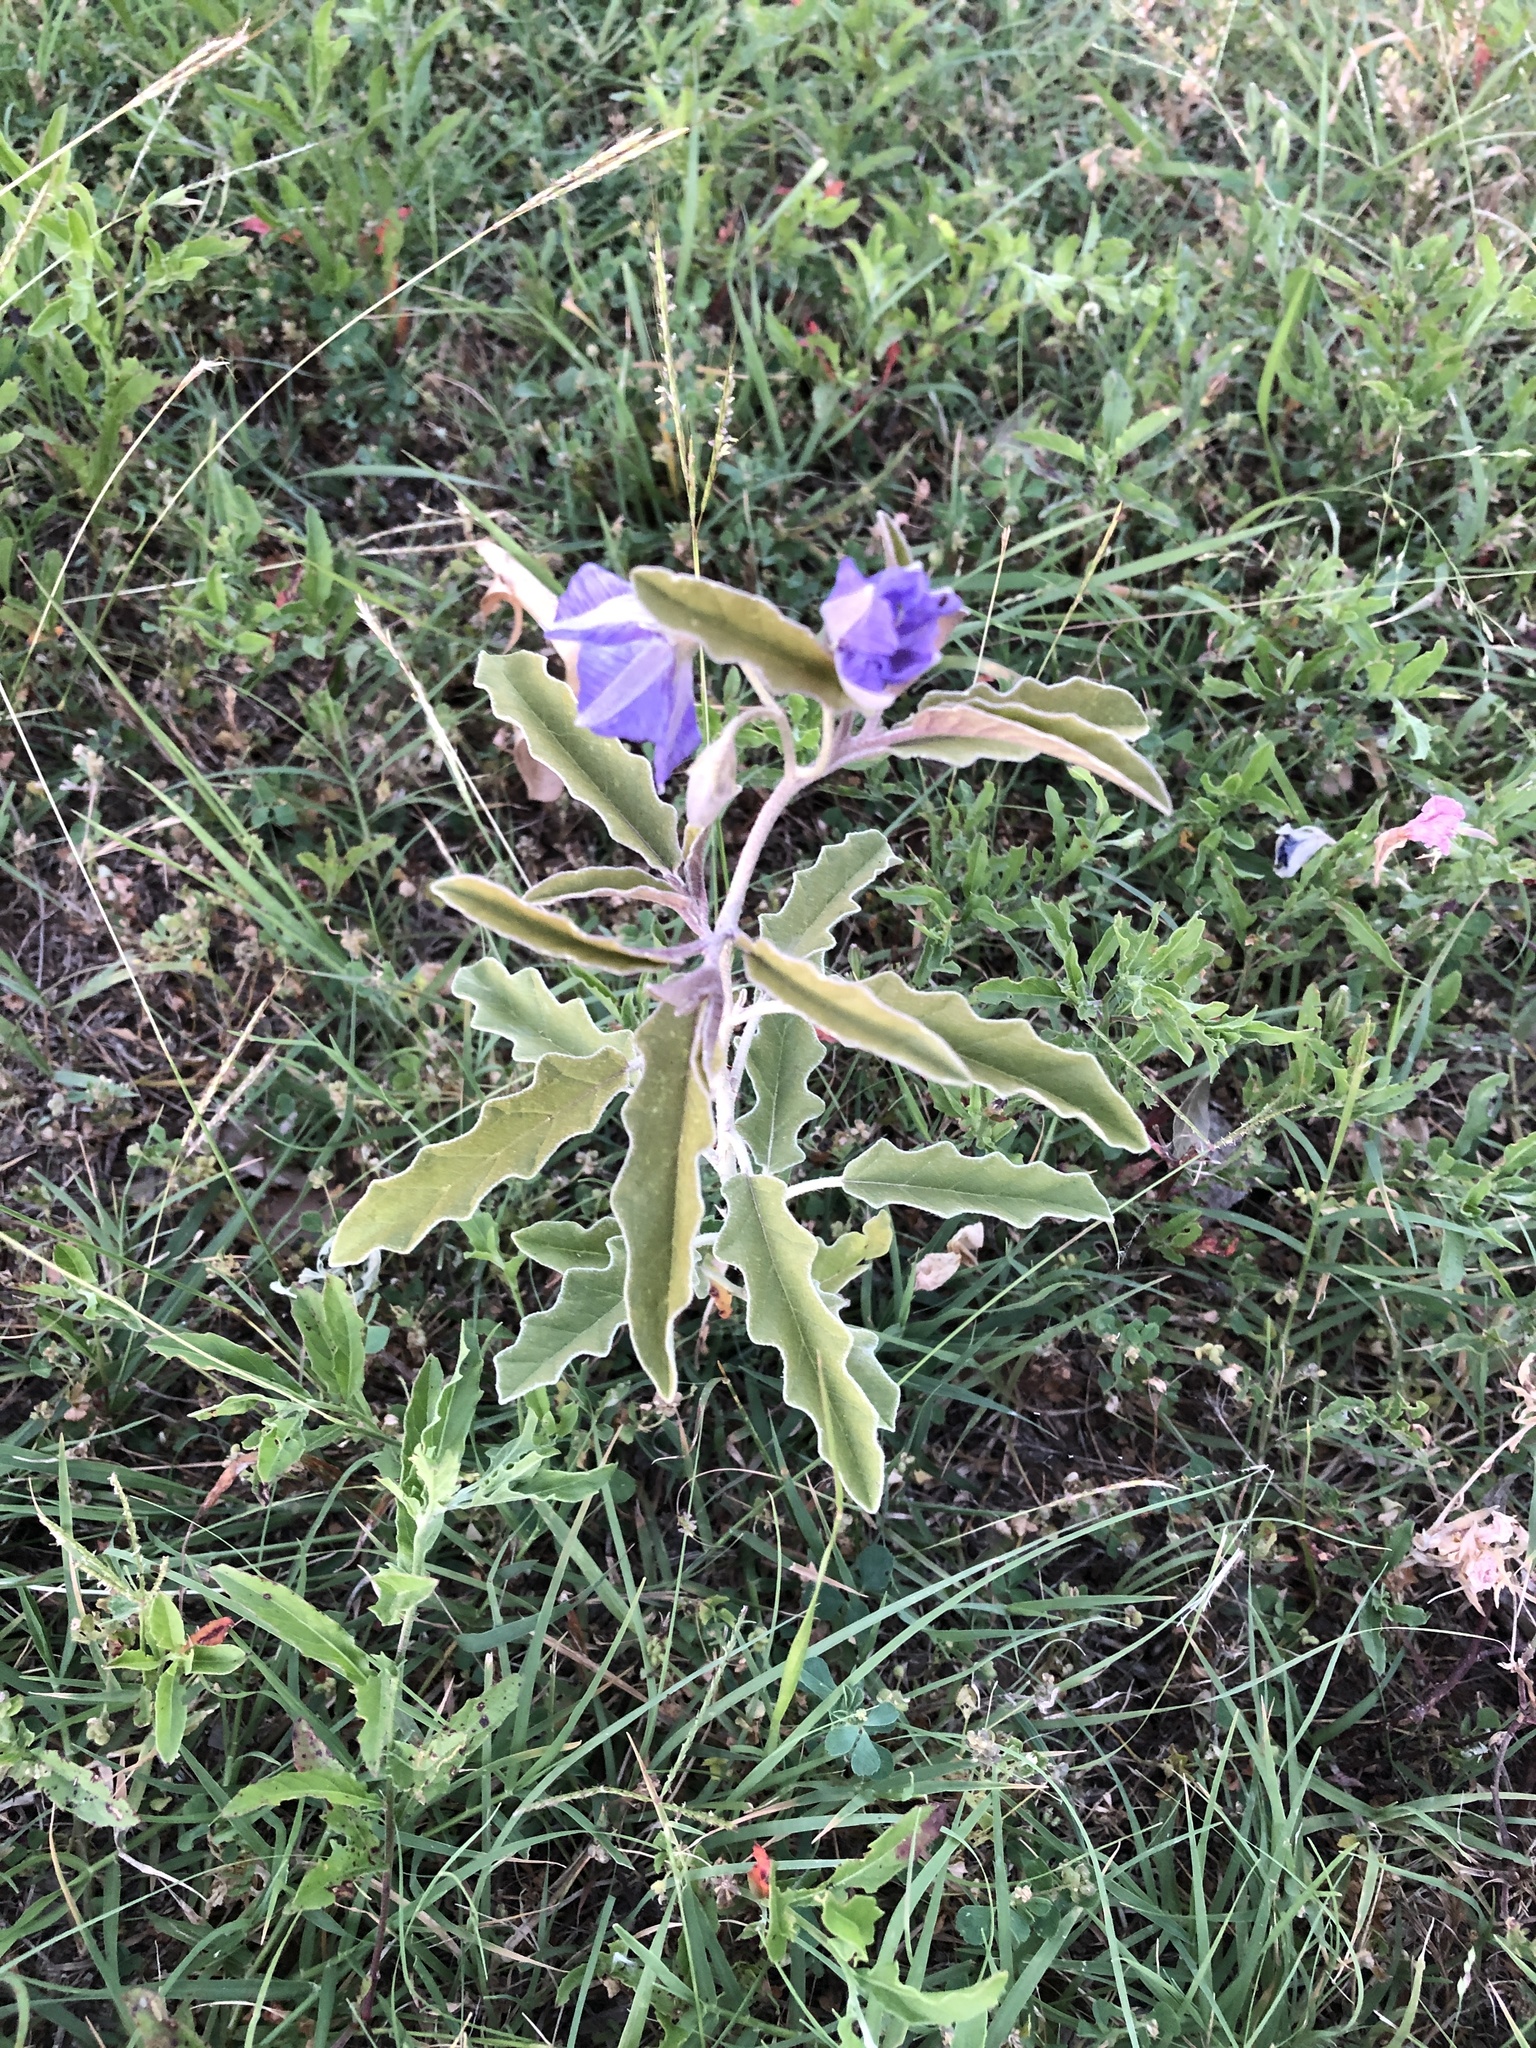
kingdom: Plantae
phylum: Tracheophyta
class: Magnoliopsida
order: Solanales
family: Solanaceae
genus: Solanum
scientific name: Solanum elaeagnifolium
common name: Silverleaf nightshade
